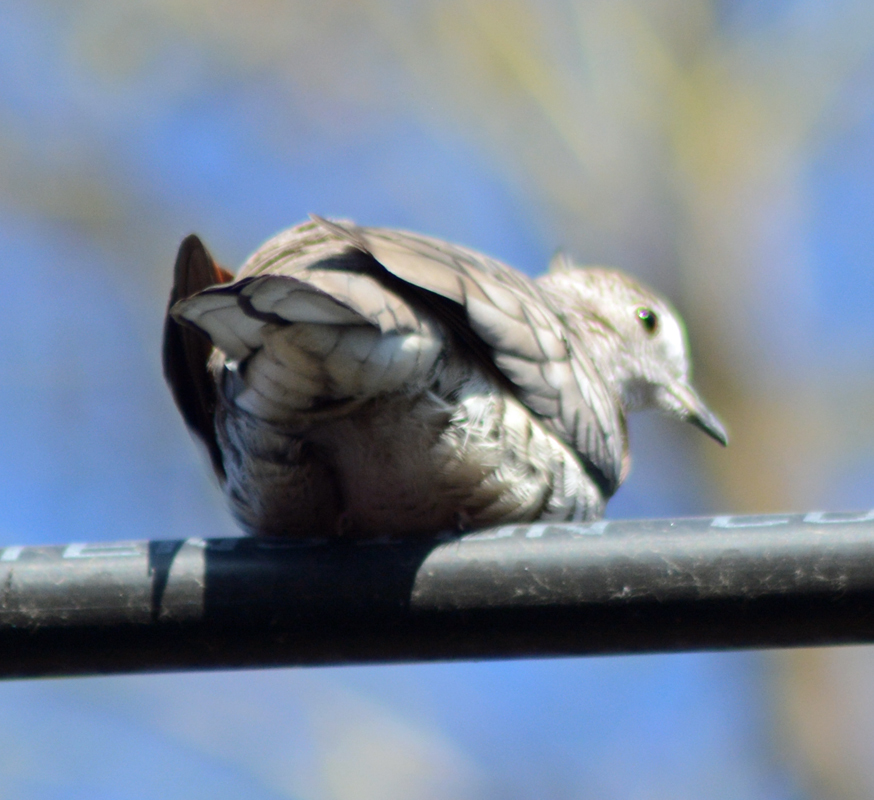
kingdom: Animalia
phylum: Chordata
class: Aves
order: Columbiformes
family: Columbidae
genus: Columbina
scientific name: Columbina inca
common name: Inca dove
